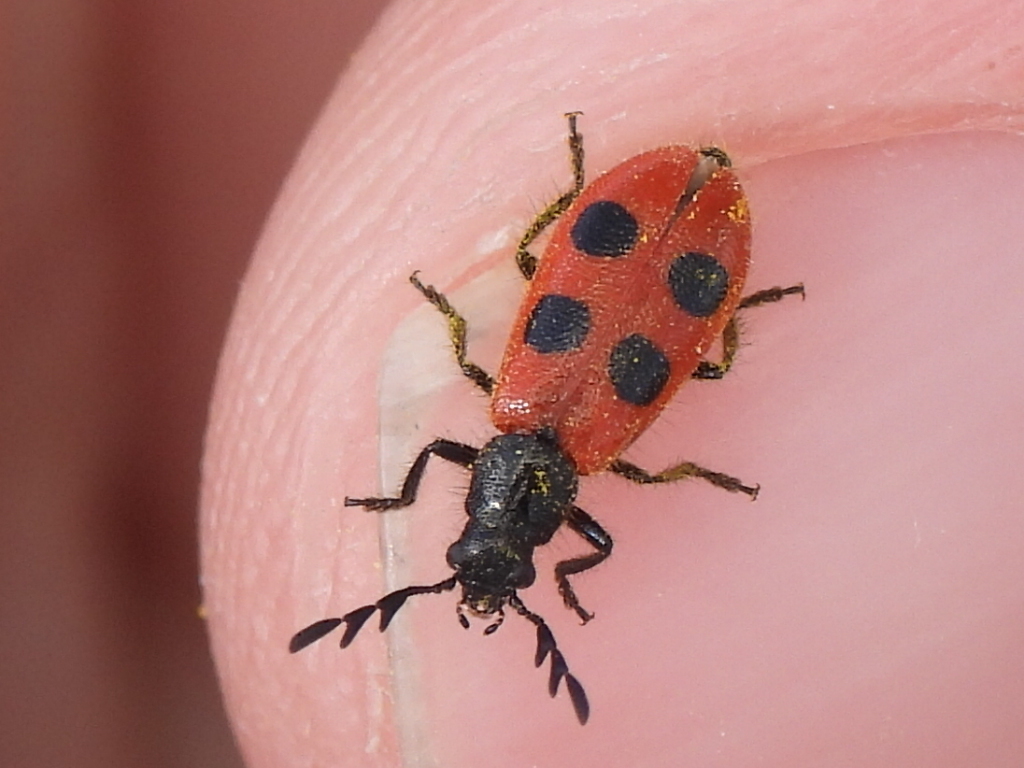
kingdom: Animalia
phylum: Arthropoda
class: Insecta
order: Coleoptera
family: Cleridae
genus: Pelonides
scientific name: Pelonides quadripunctatus
